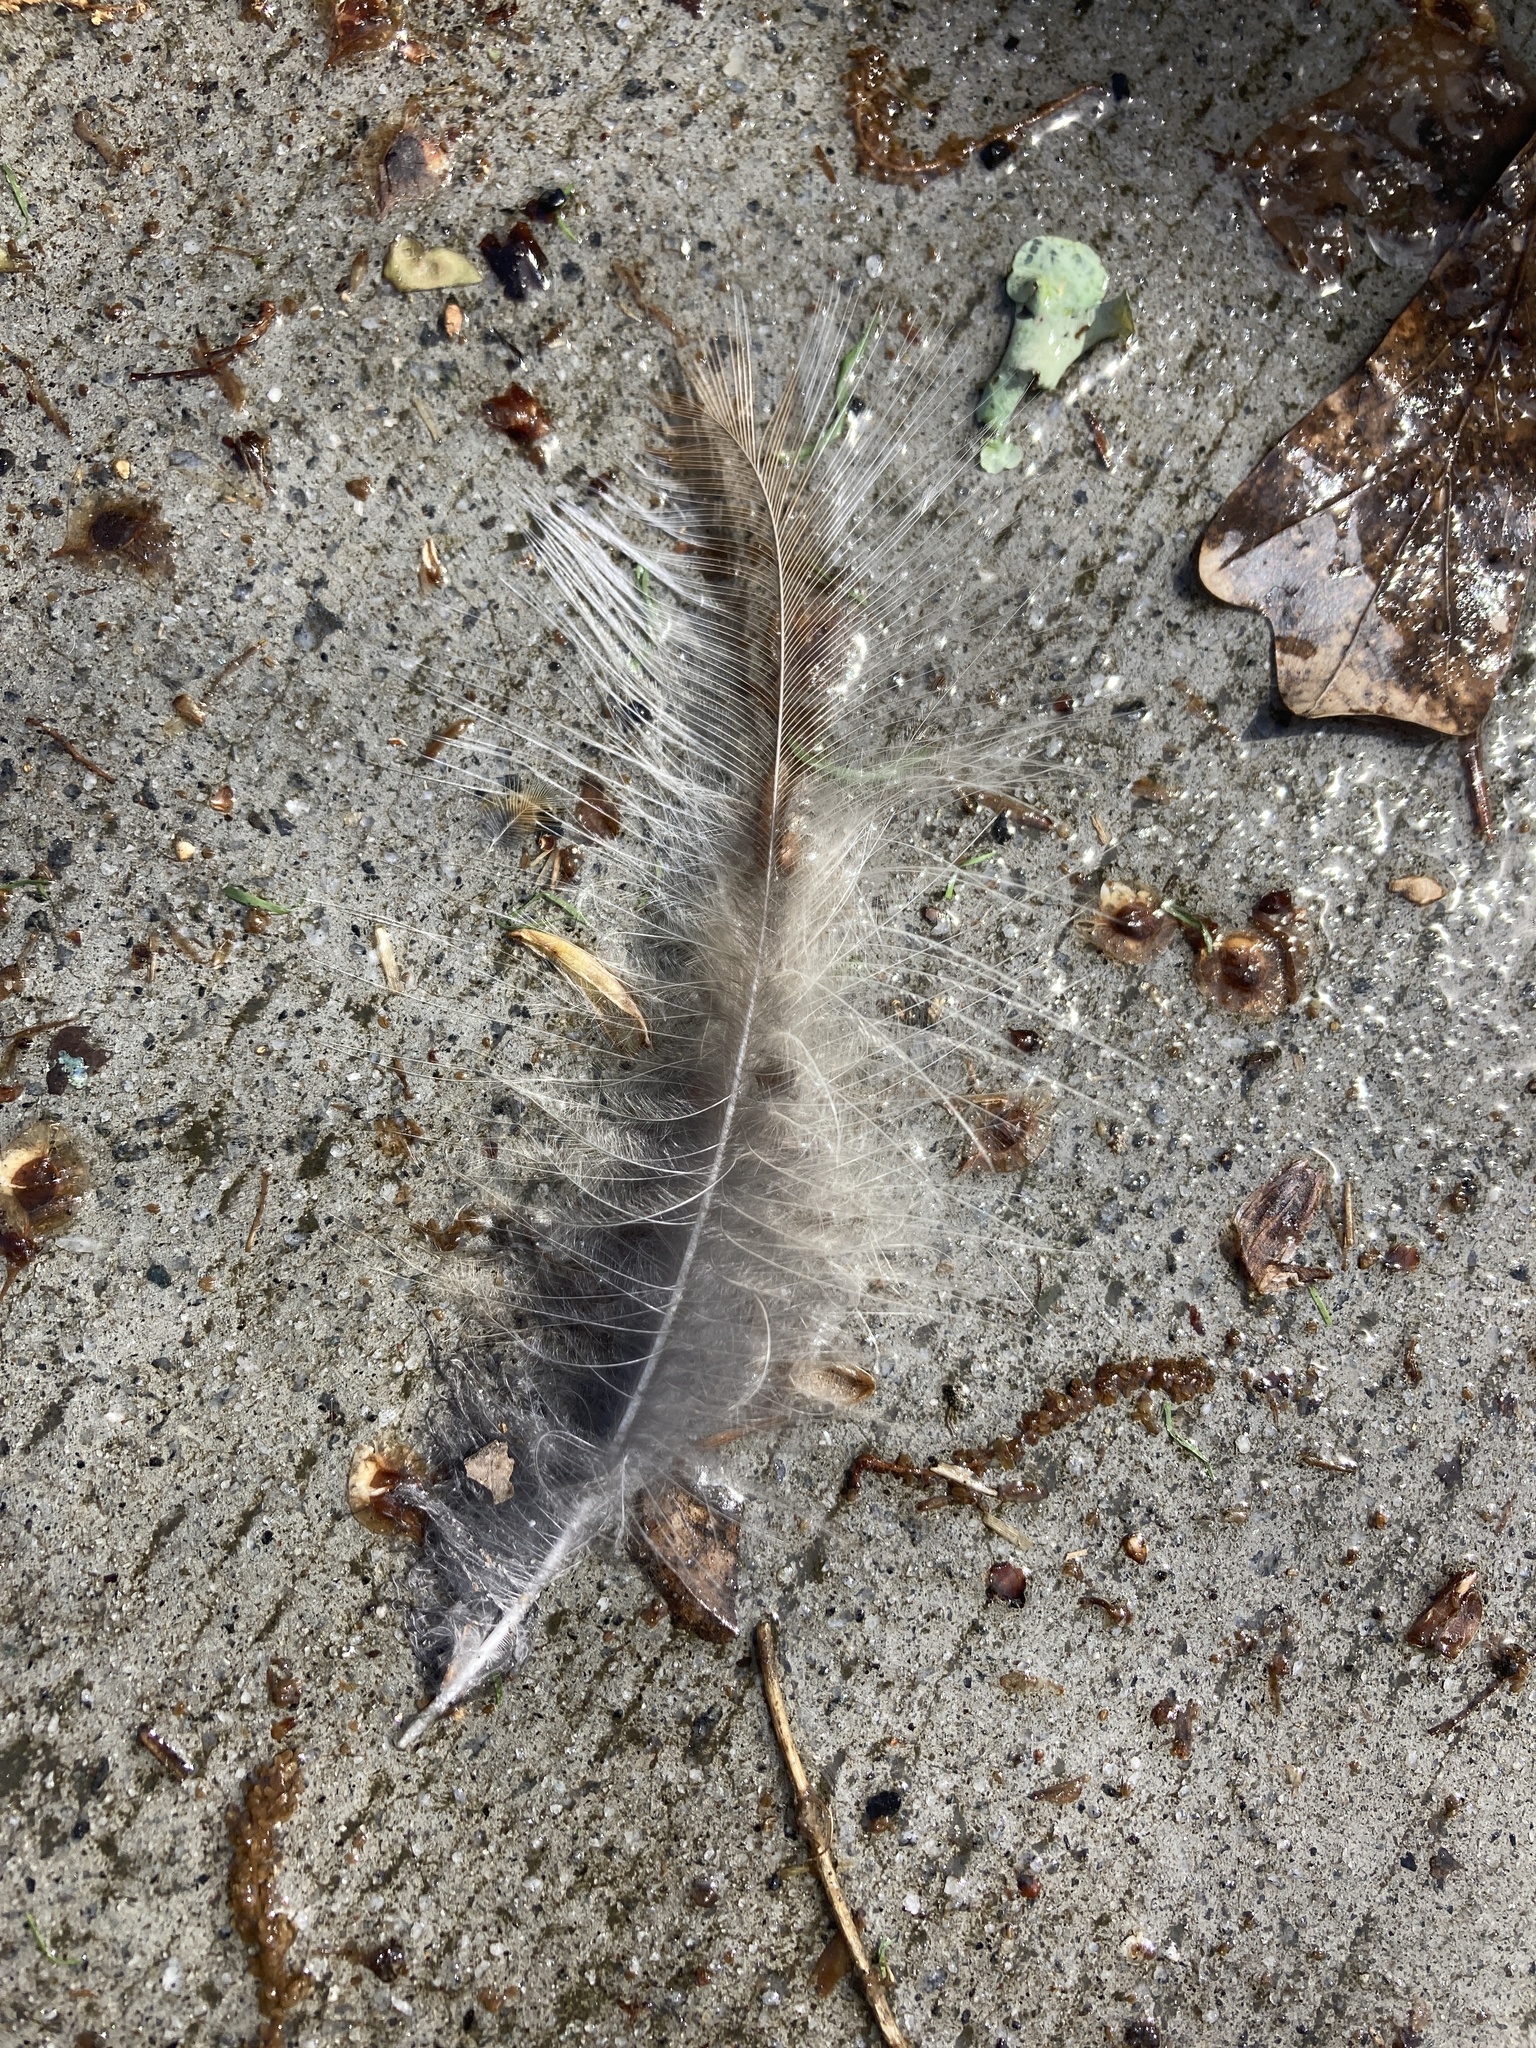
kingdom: Animalia
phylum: Chordata
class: Aves
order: Strigiformes
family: Strigidae
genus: Strix
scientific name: Strix varia
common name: Barred owl
